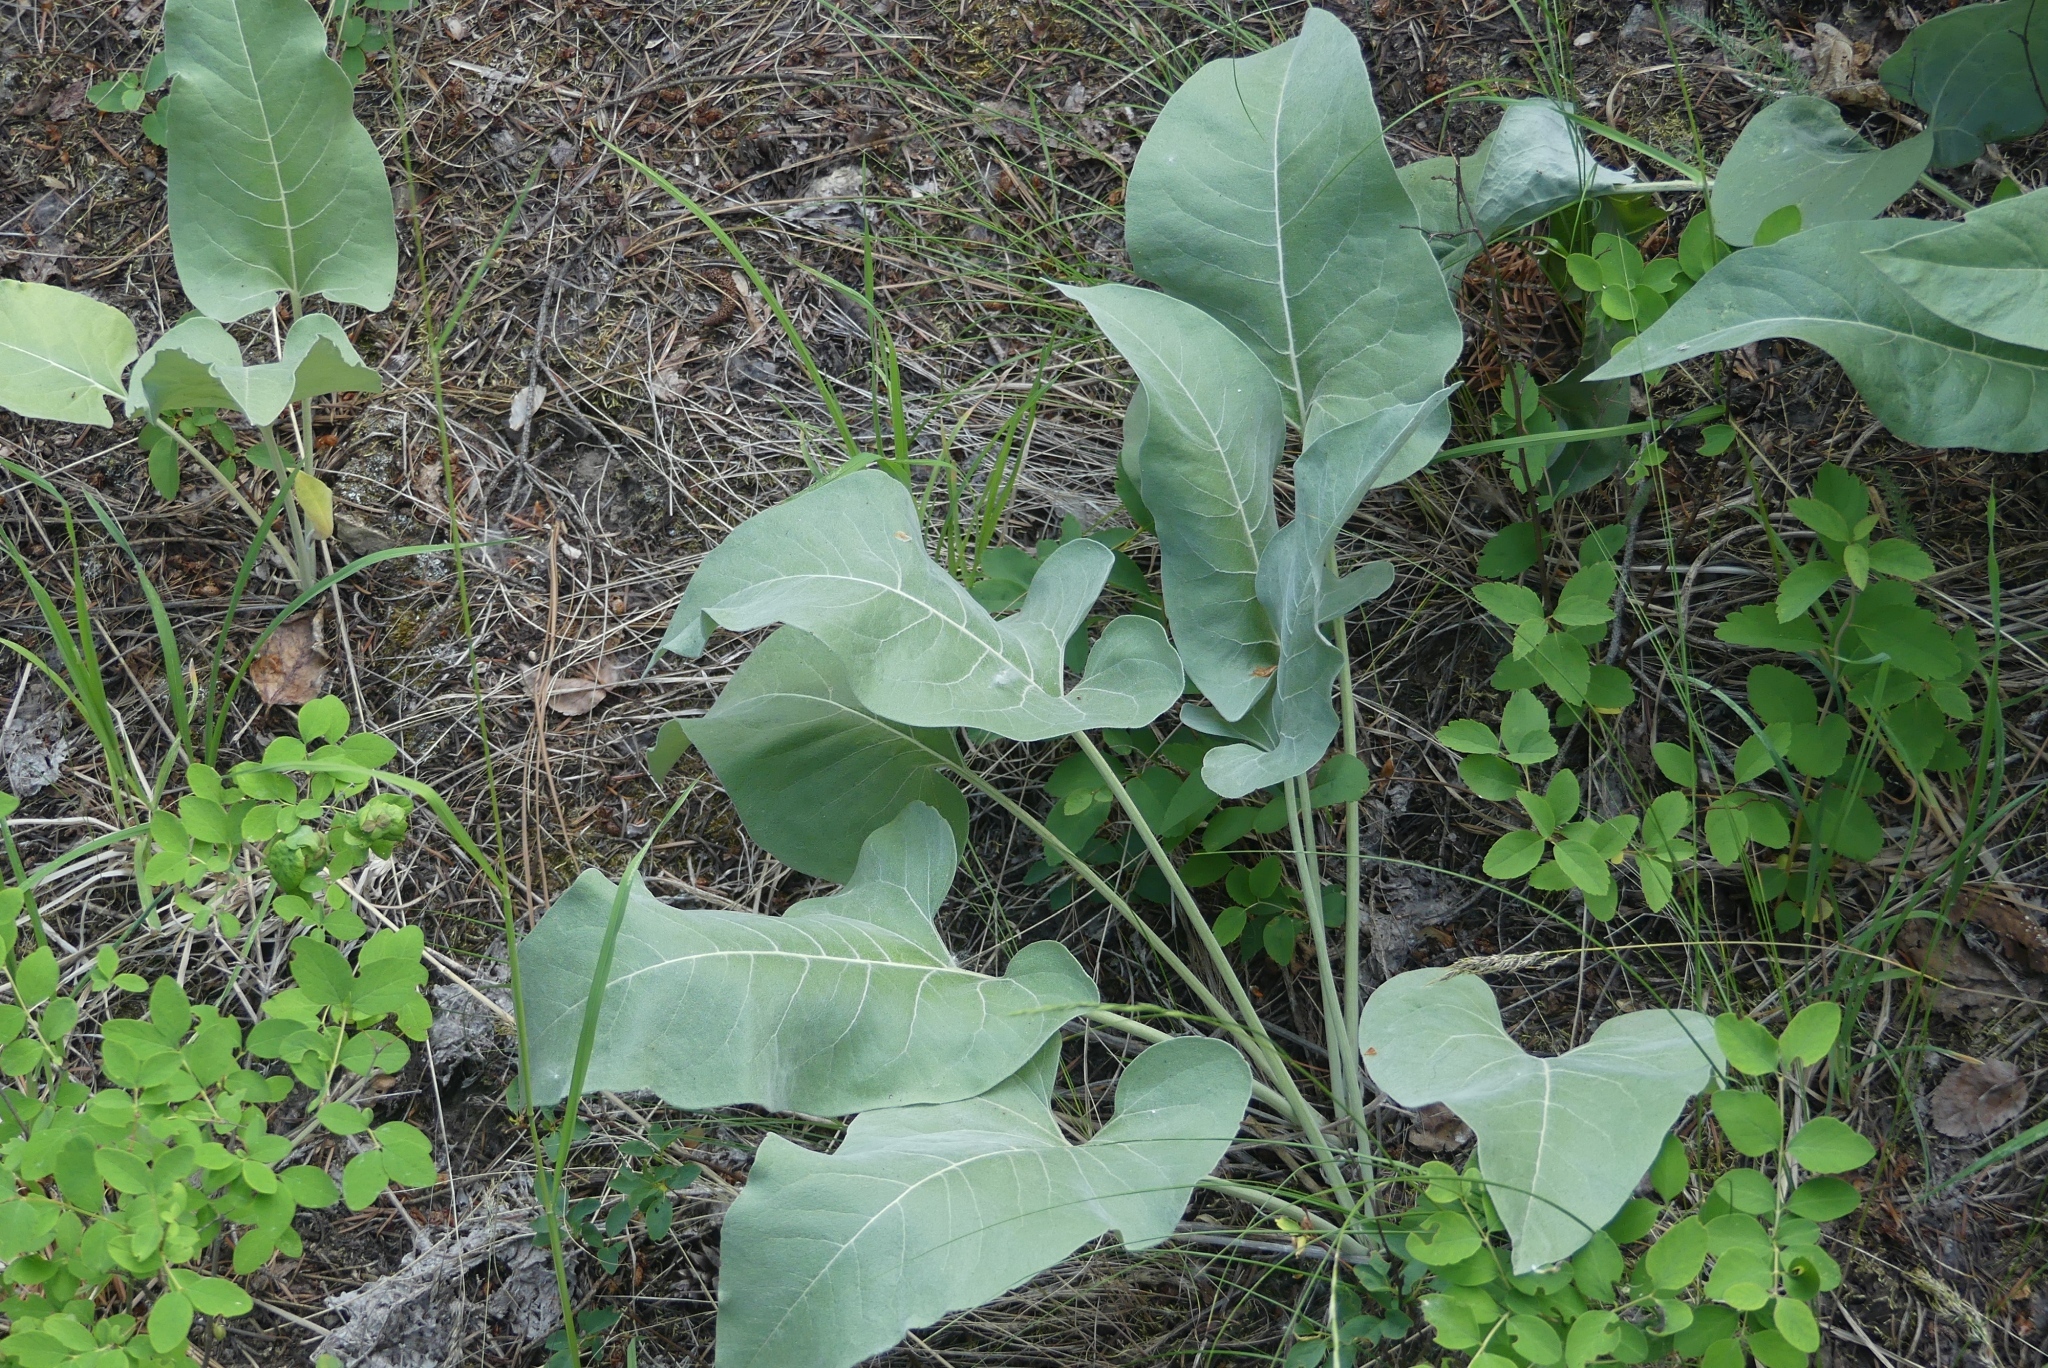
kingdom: Plantae
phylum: Tracheophyta
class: Magnoliopsida
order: Asterales
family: Asteraceae
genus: Wyethia
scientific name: Wyethia sagittata
